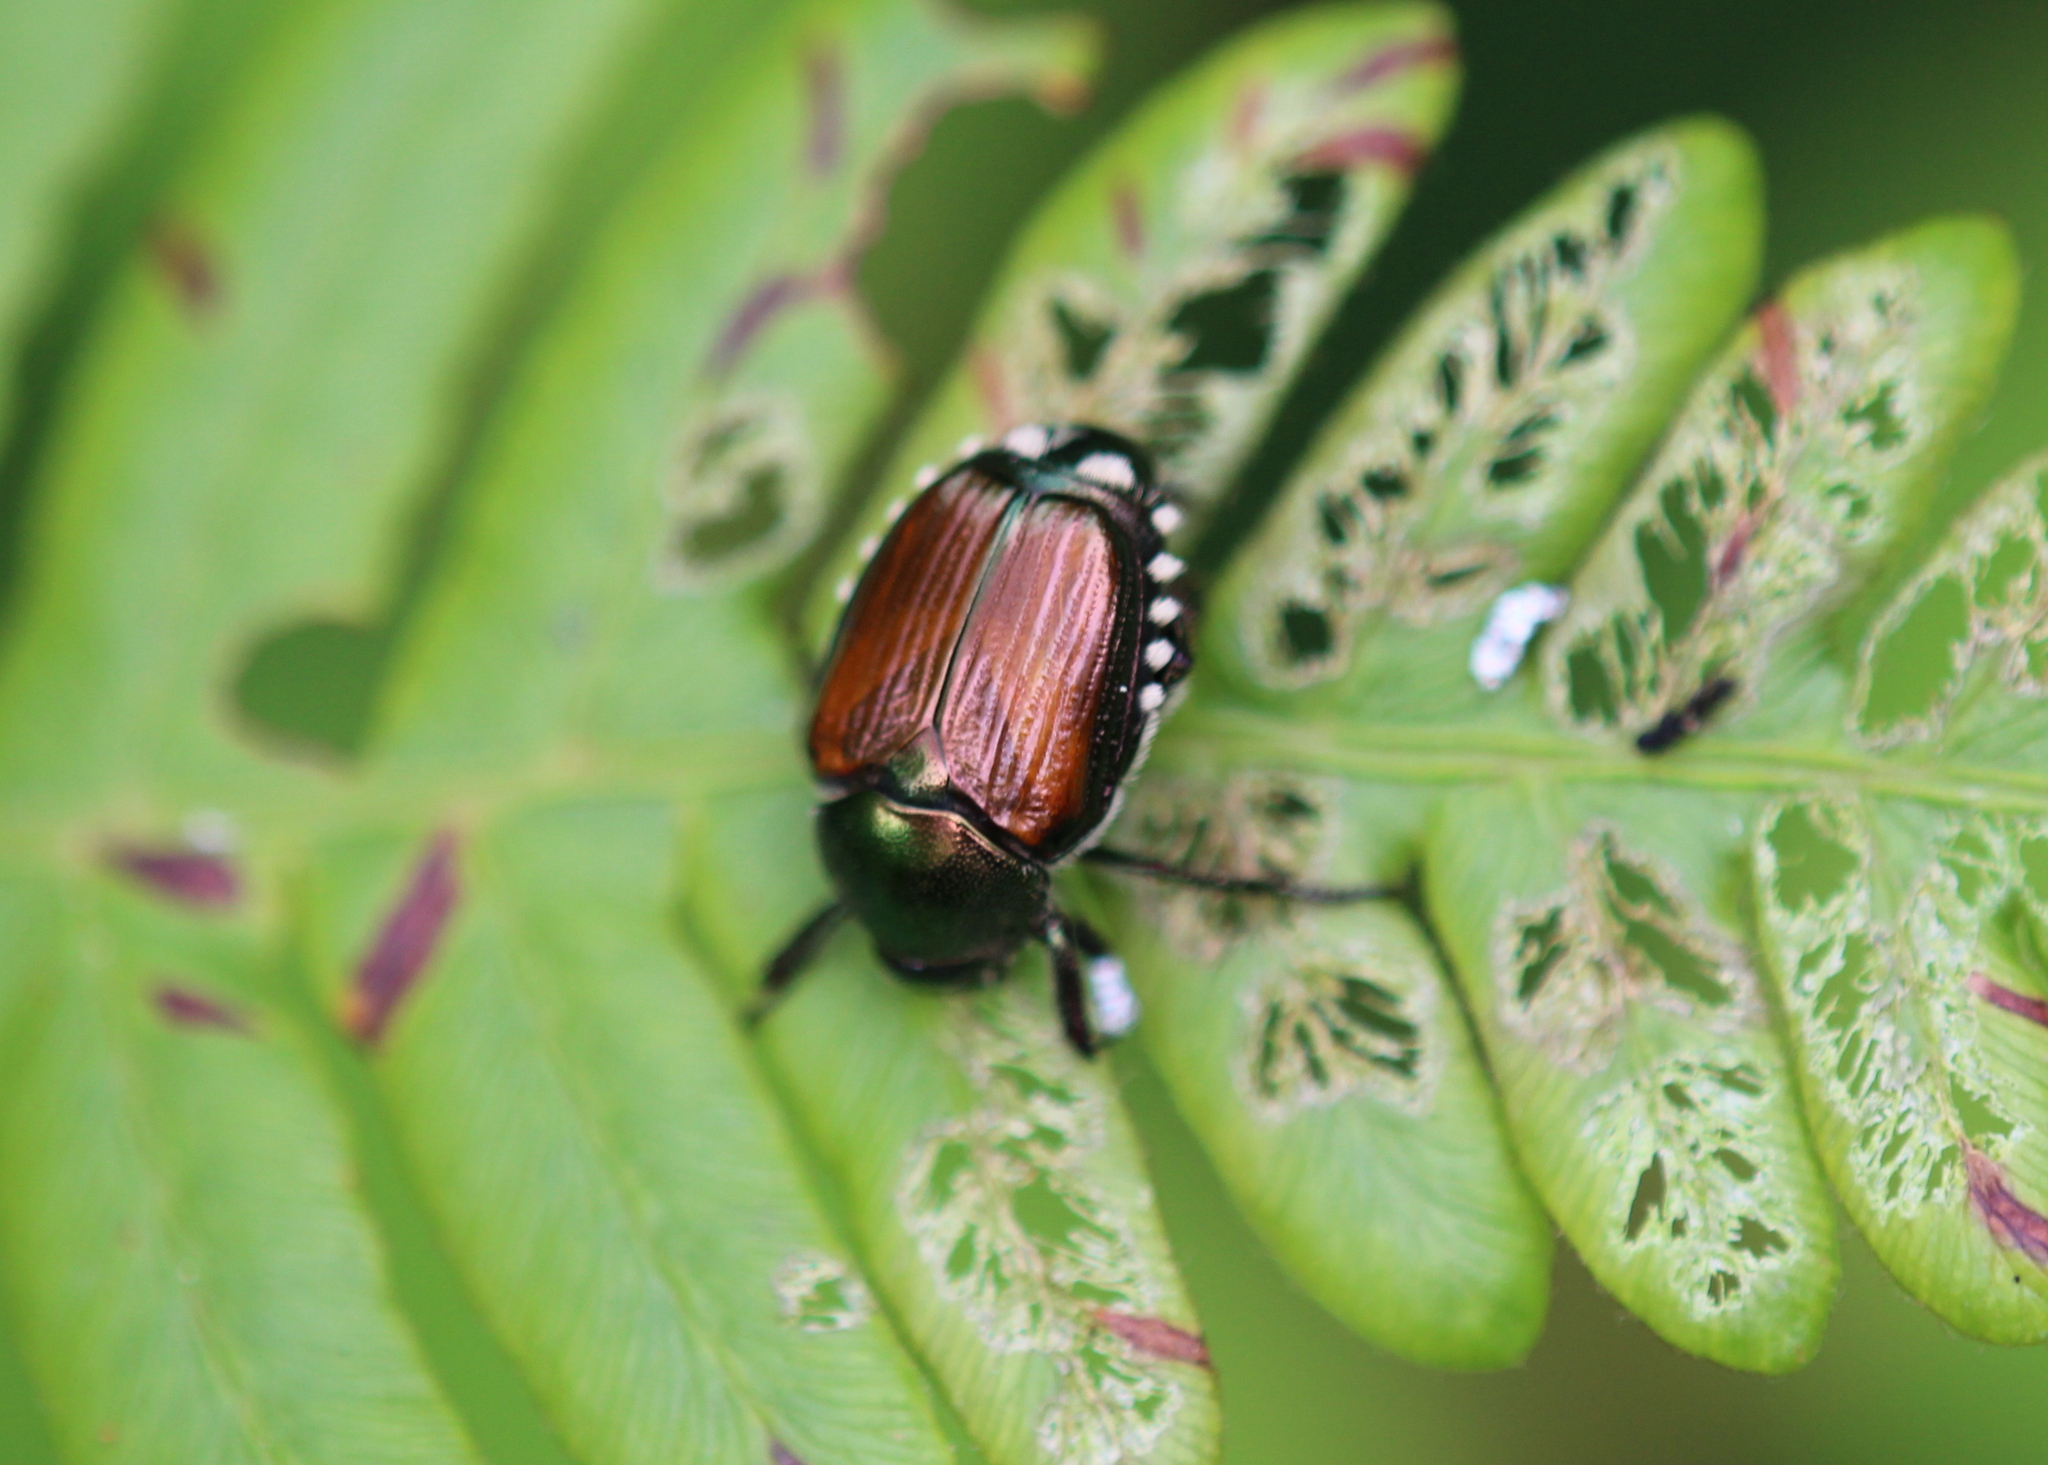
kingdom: Animalia
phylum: Arthropoda
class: Insecta
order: Coleoptera
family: Scarabaeidae
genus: Popillia
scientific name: Popillia japonica
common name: Japanese beetle
